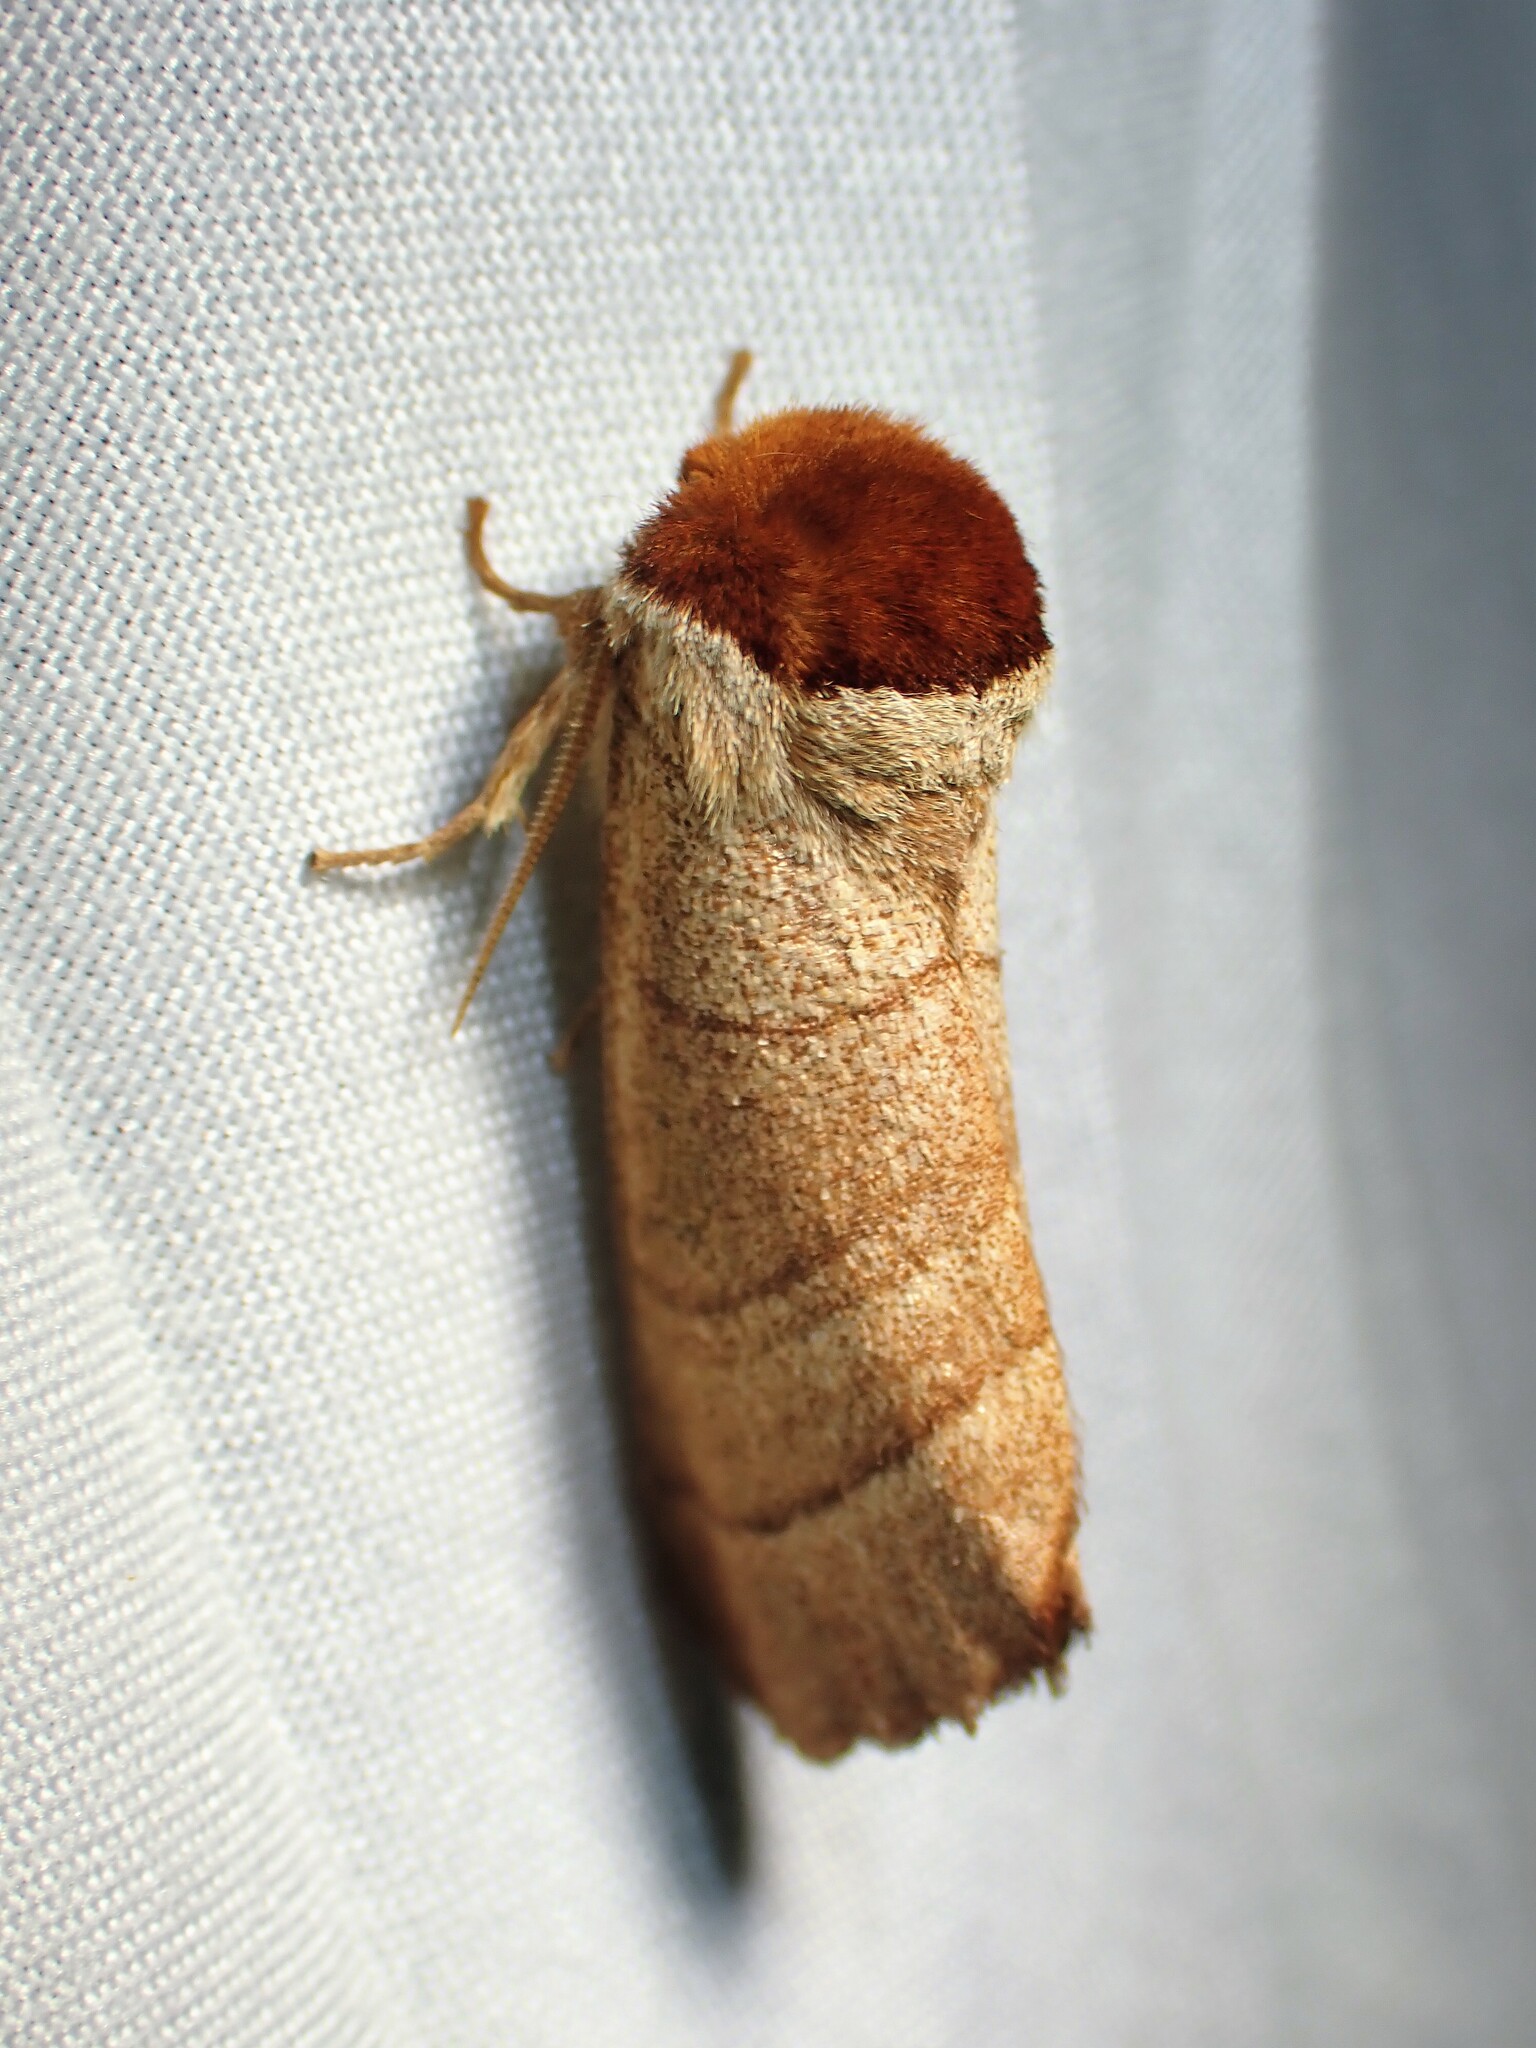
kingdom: Animalia
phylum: Arthropoda
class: Insecta
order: Lepidoptera
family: Notodontidae
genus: Datana
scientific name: Datana ministra
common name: Yellow-necked caterpillar moth
